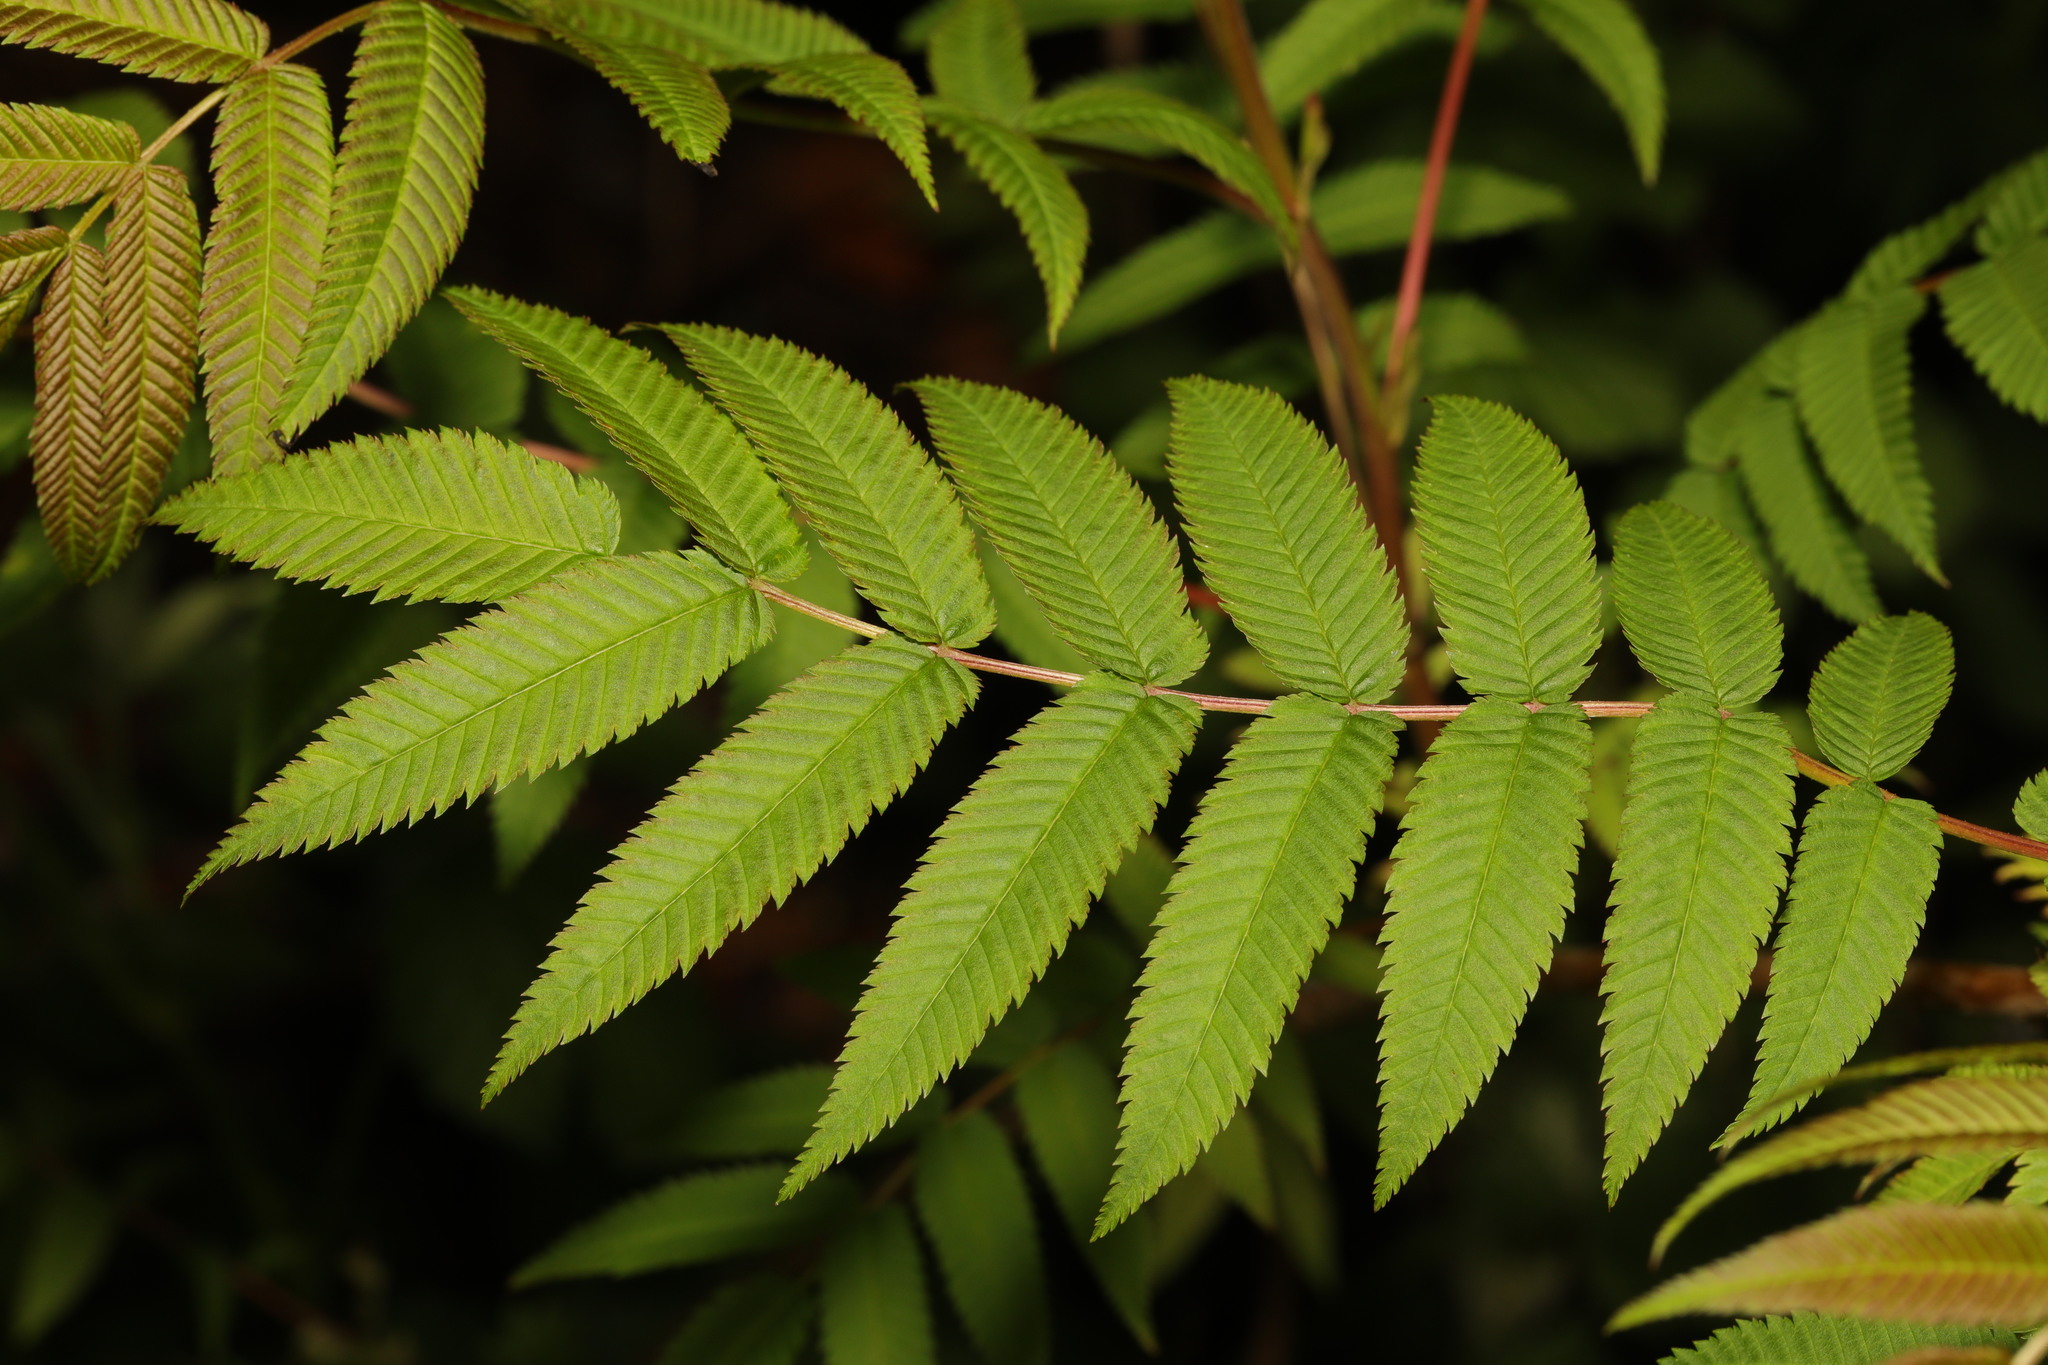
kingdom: Plantae
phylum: Tracheophyta
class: Magnoliopsida
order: Rosales
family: Rosaceae
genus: Sorbaria
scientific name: Sorbaria sorbifolia
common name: False spiraea
